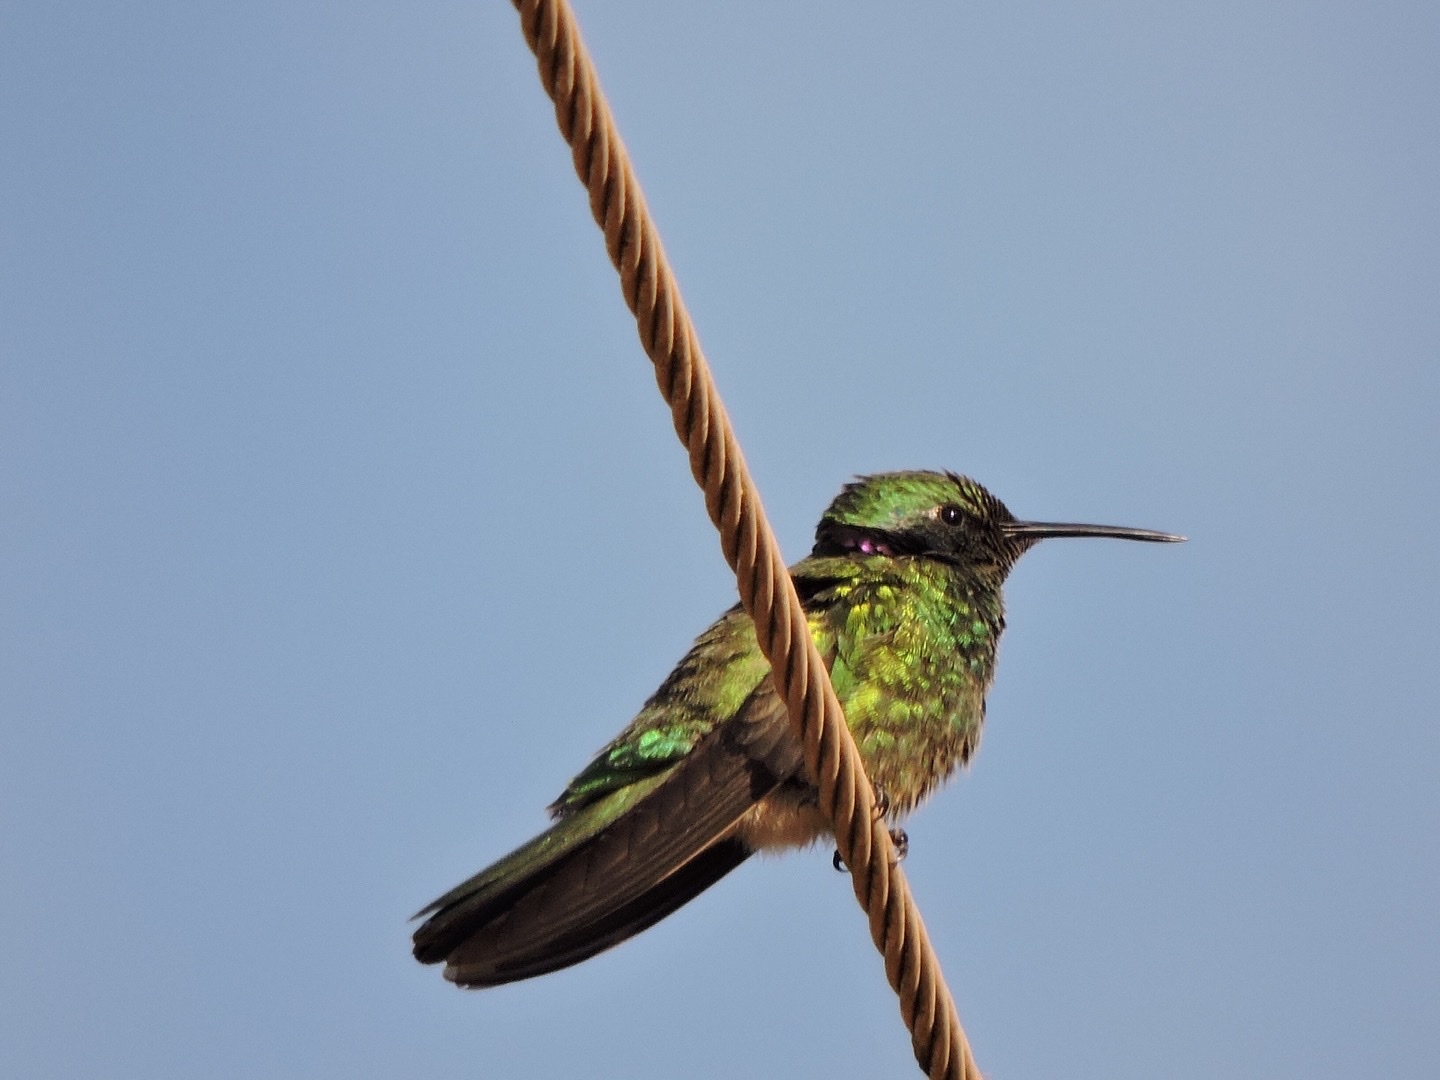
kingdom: Animalia
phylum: Chordata
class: Aves
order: Apodiformes
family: Trochilidae
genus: Colibri
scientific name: Colibri serrirostris
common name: White-vented violetear
